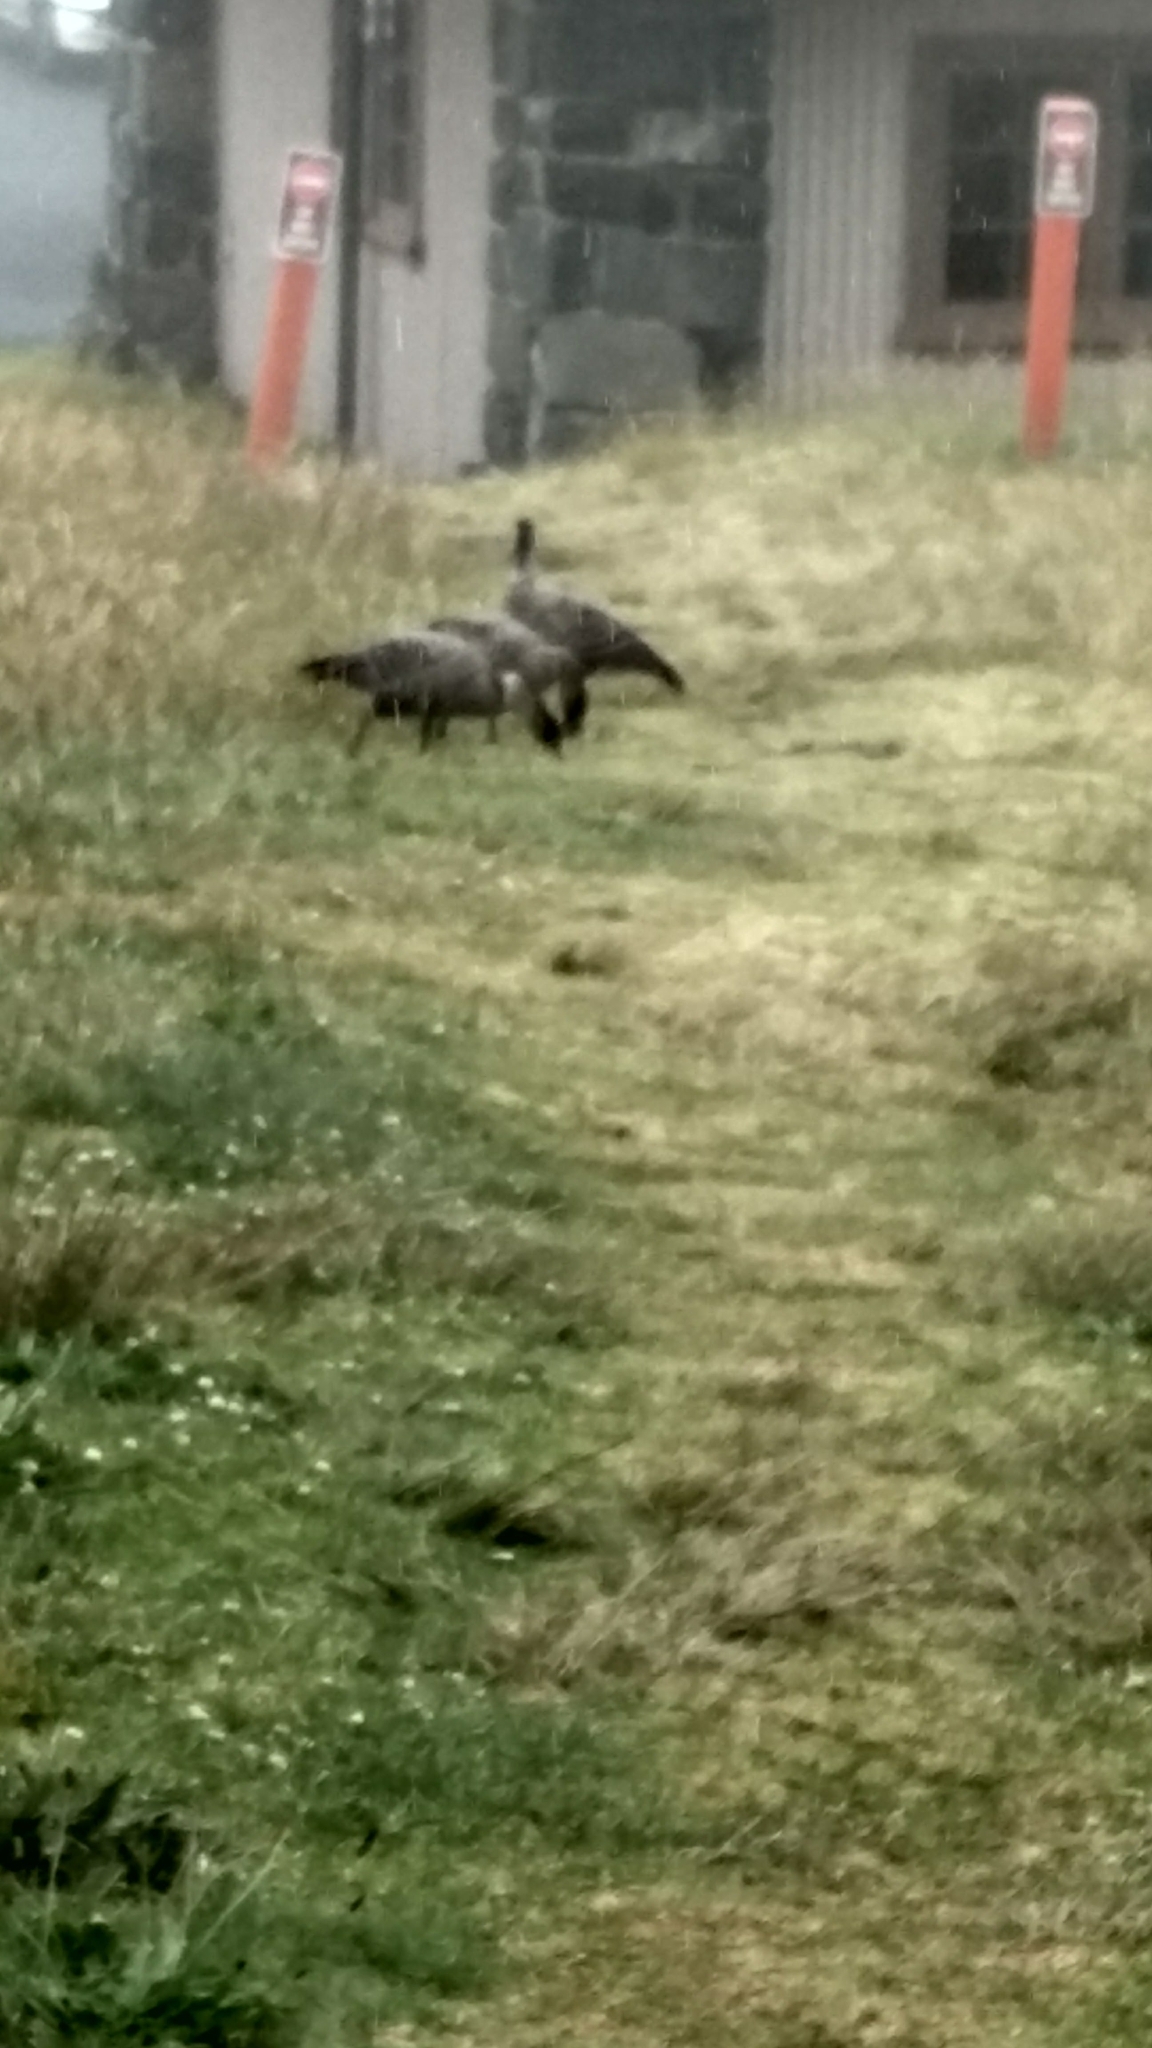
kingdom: Animalia
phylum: Chordata
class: Aves
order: Anseriformes
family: Anatidae
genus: Branta
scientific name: Branta sandvicensis
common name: Nene
